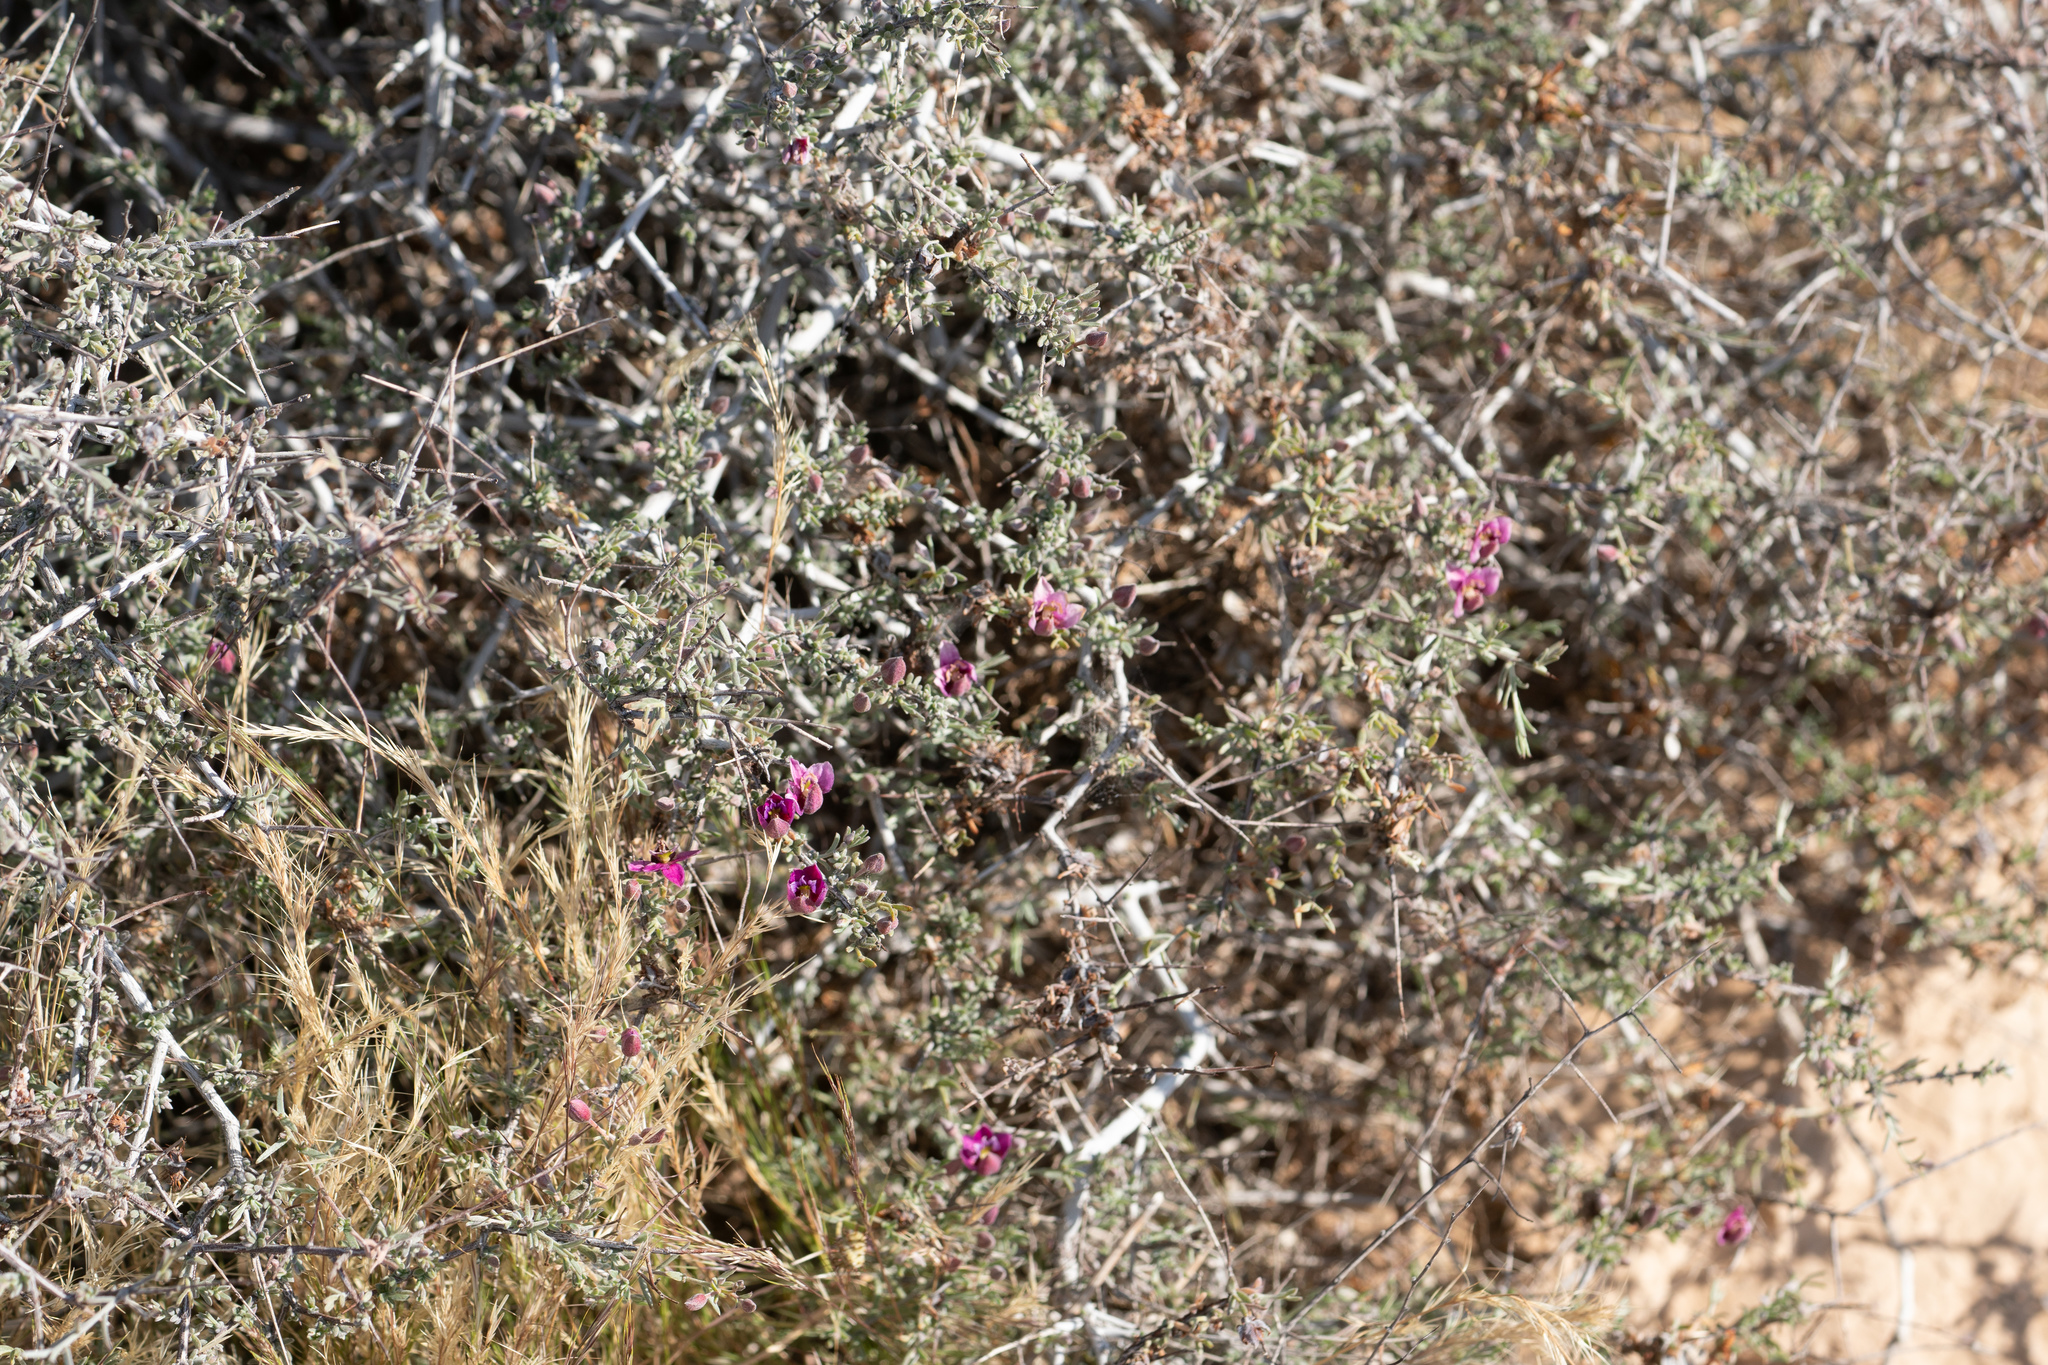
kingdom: Plantae
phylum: Tracheophyta
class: Magnoliopsida
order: Zygophyllales
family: Krameriaceae
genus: Krameria
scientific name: Krameria erecta
